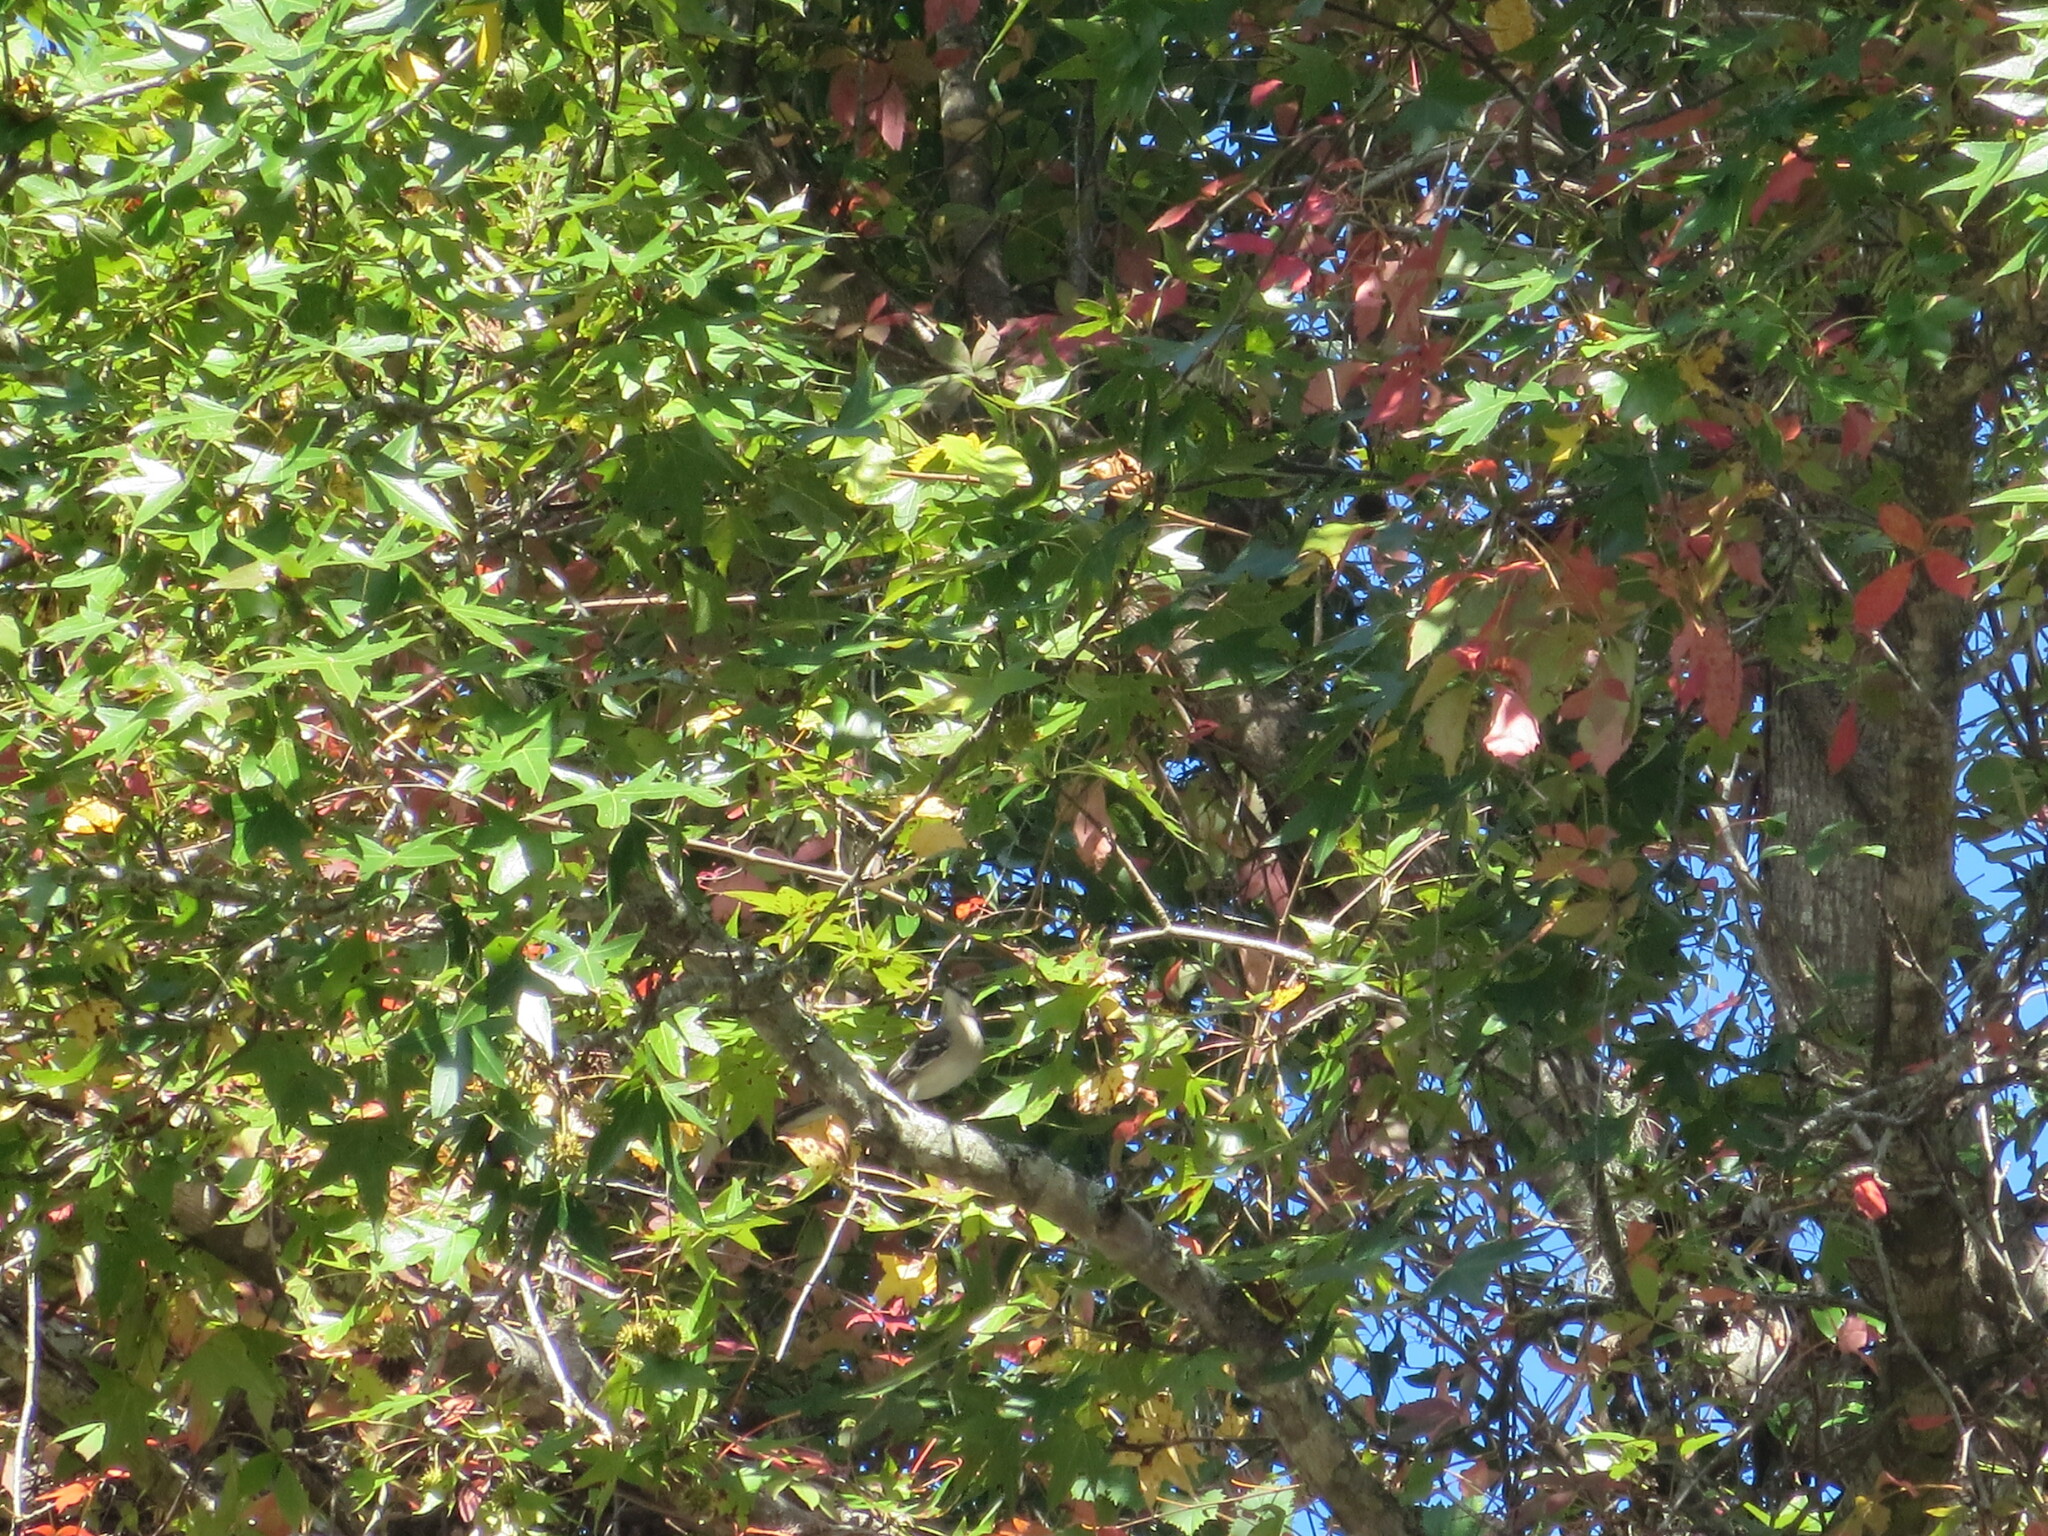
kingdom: Plantae
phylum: Tracheophyta
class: Magnoliopsida
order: Saxifragales
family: Altingiaceae
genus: Liquidambar
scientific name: Liquidambar styraciflua
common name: Sweet gum
